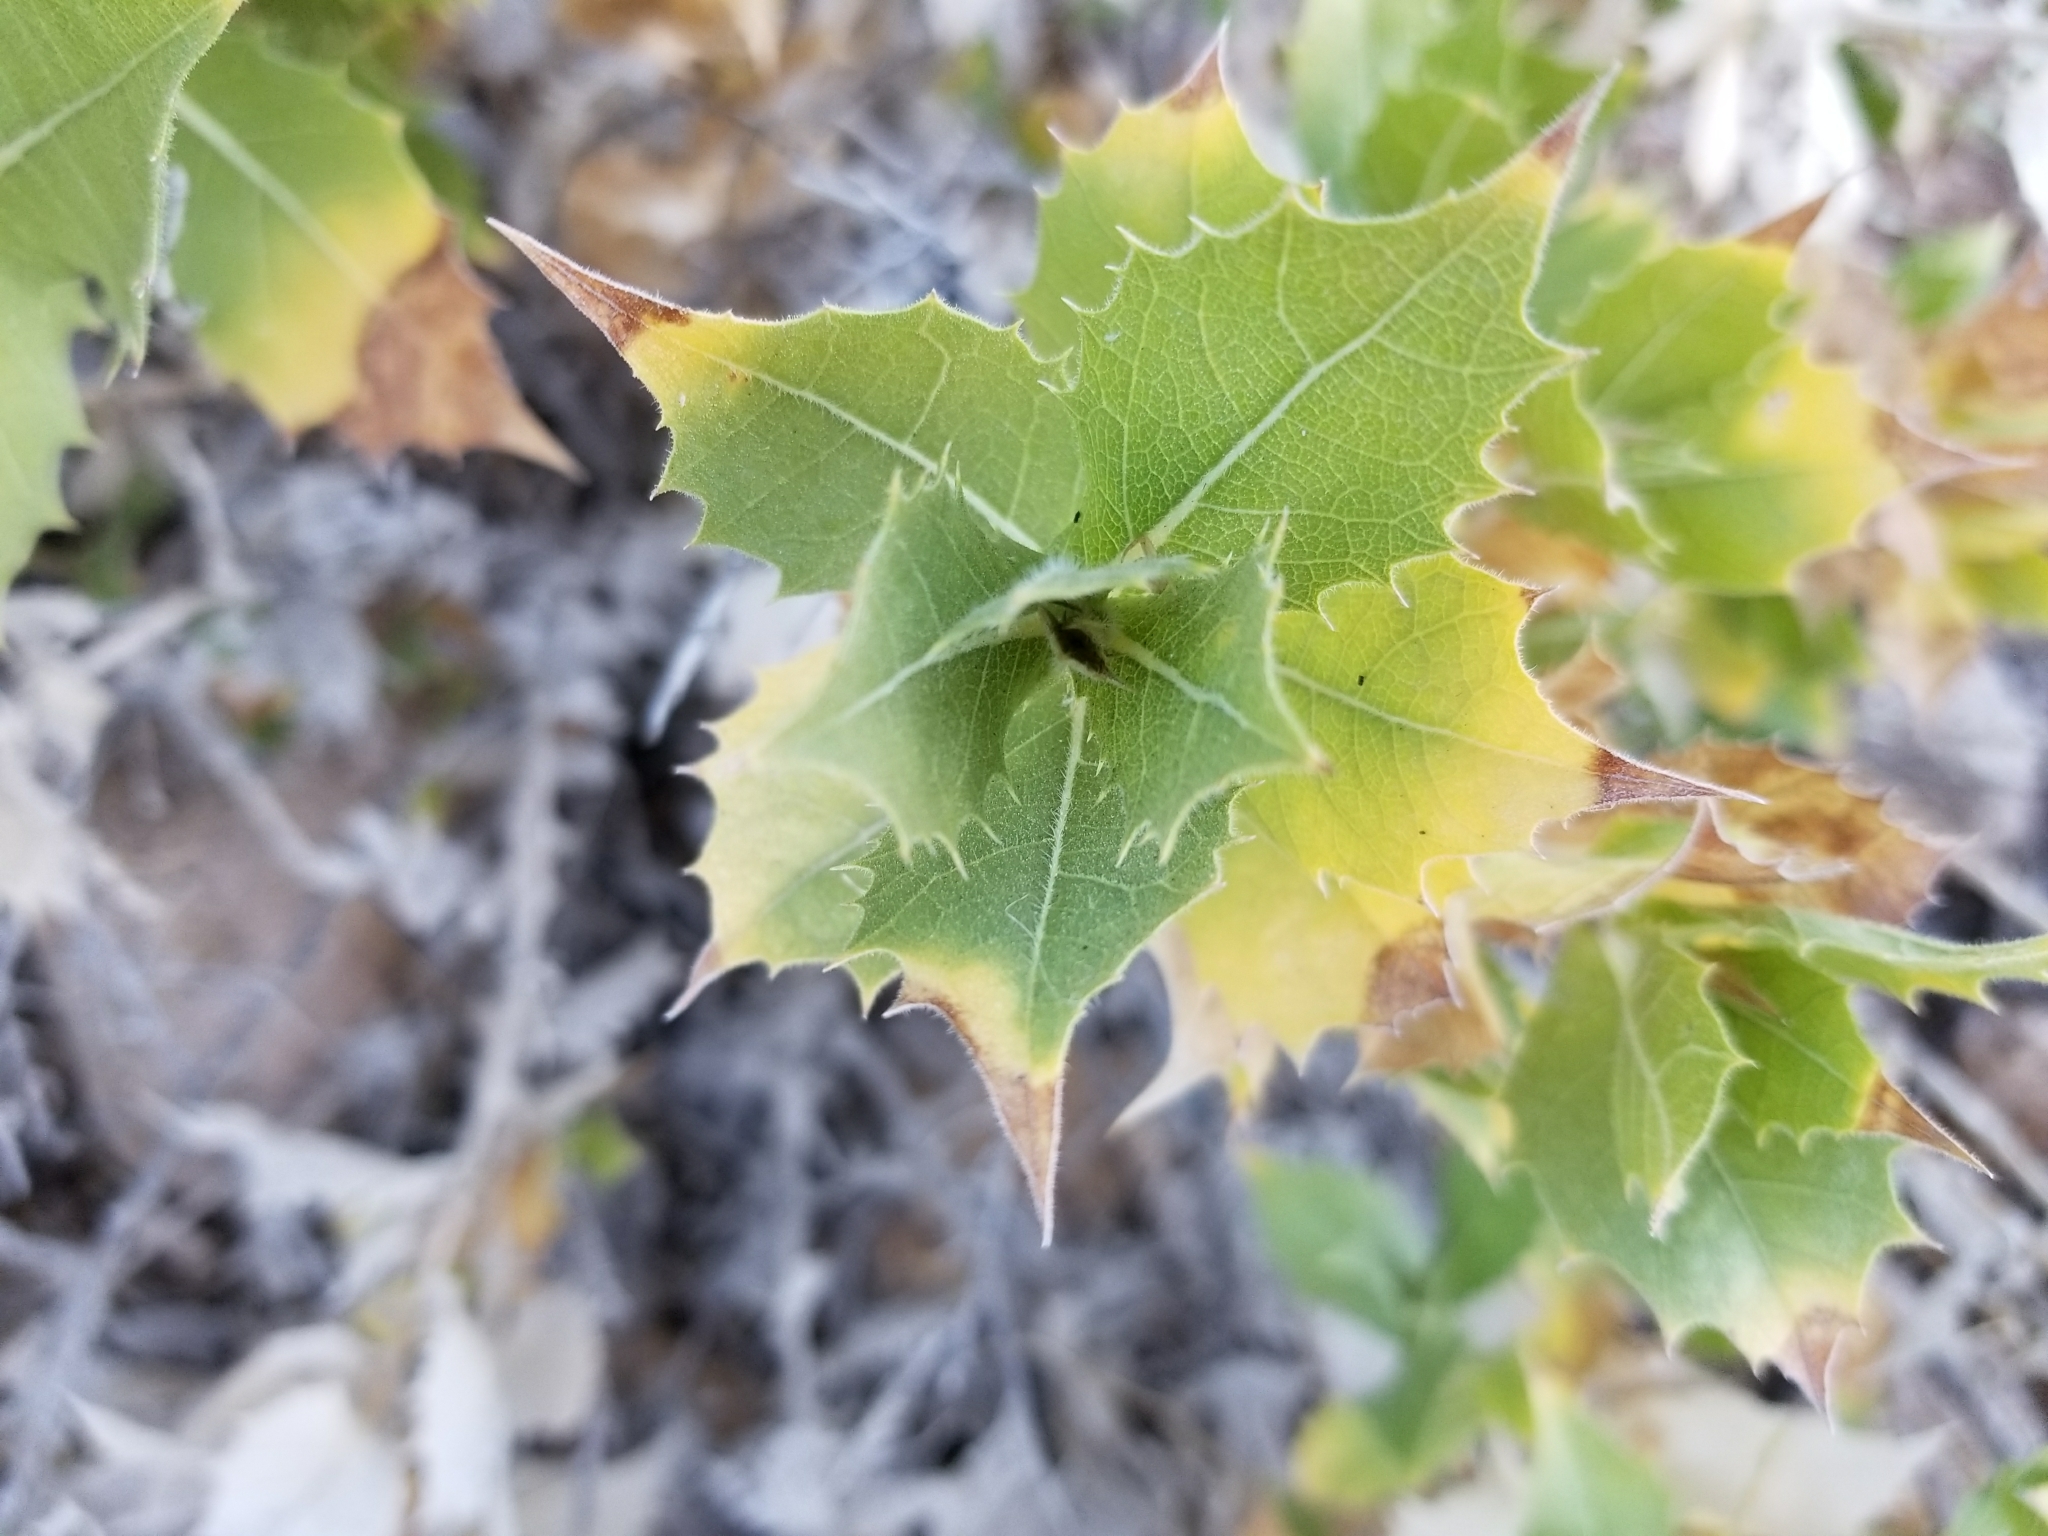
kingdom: Plantae
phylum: Tracheophyta
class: Magnoliopsida
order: Asterales
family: Asteraceae
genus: Ambrosia
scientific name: Ambrosia ilicifolia
